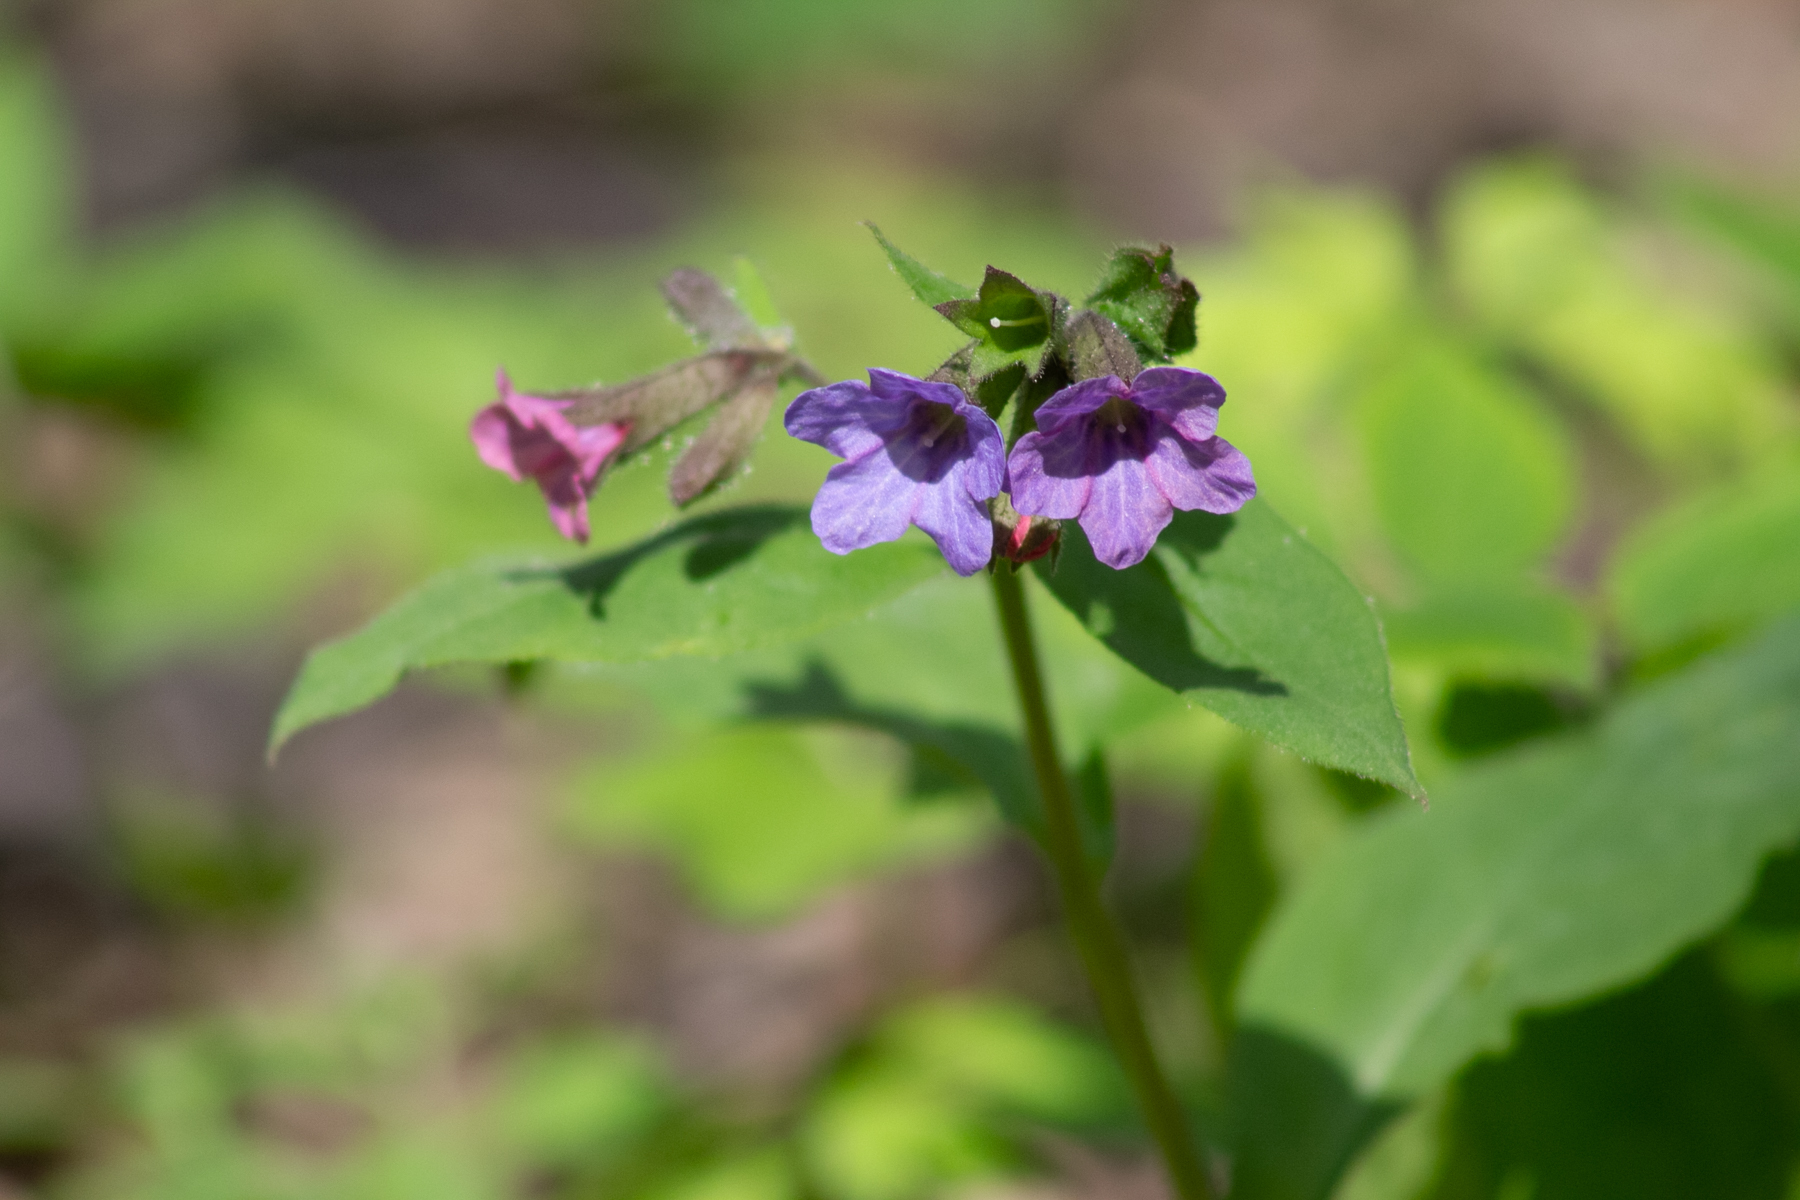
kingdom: Plantae
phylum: Tracheophyta
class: Magnoliopsida
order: Boraginales
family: Boraginaceae
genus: Pulmonaria
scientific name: Pulmonaria obscura
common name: Suffolk lungwort
